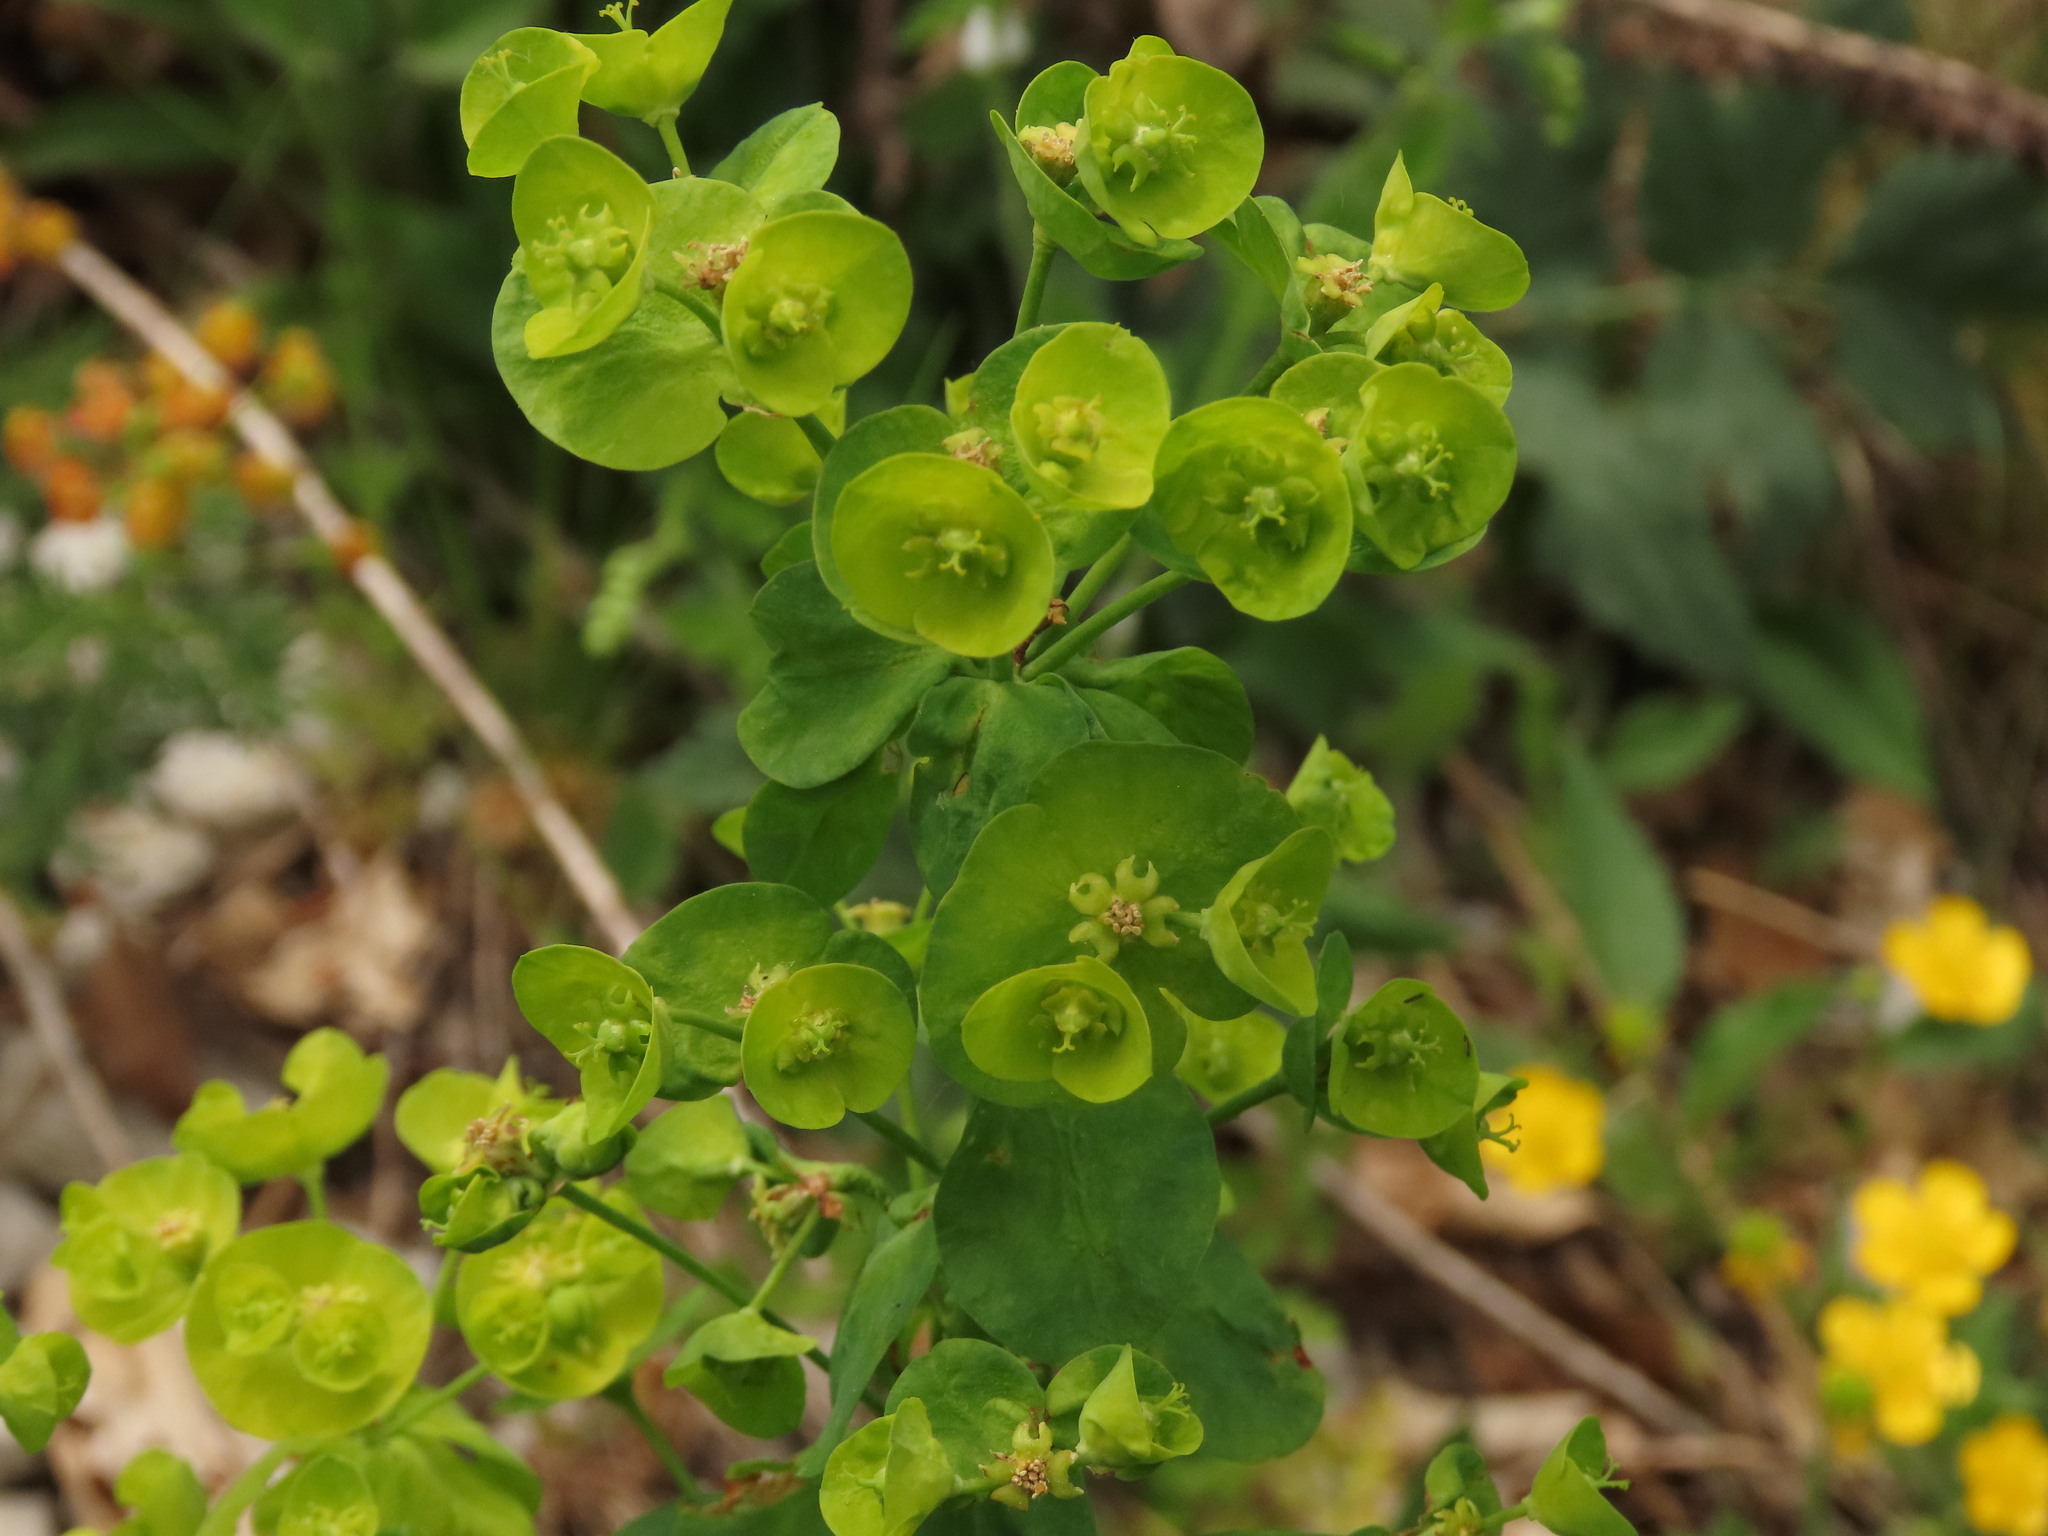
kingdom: Plantae
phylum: Tracheophyta
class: Magnoliopsida
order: Malpighiales
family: Euphorbiaceae
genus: Euphorbia
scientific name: Euphorbia amygdaloides
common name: Wood spurge
